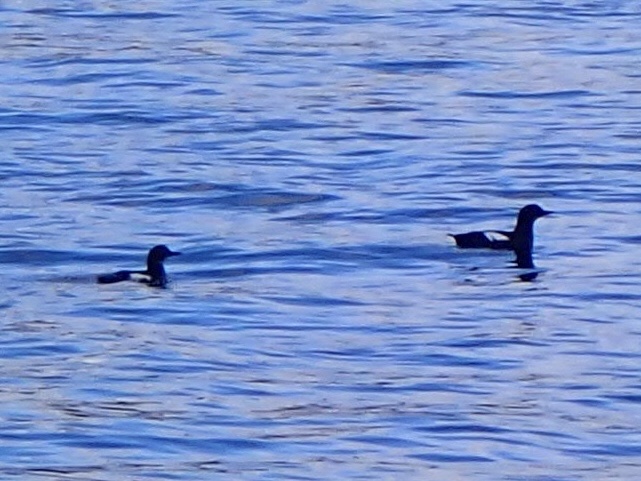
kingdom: Animalia
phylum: Chordata
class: Aves
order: Charadriiformes
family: Alcidae
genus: Cepphus
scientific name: Cepphus columba
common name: Pigeon guillemot
